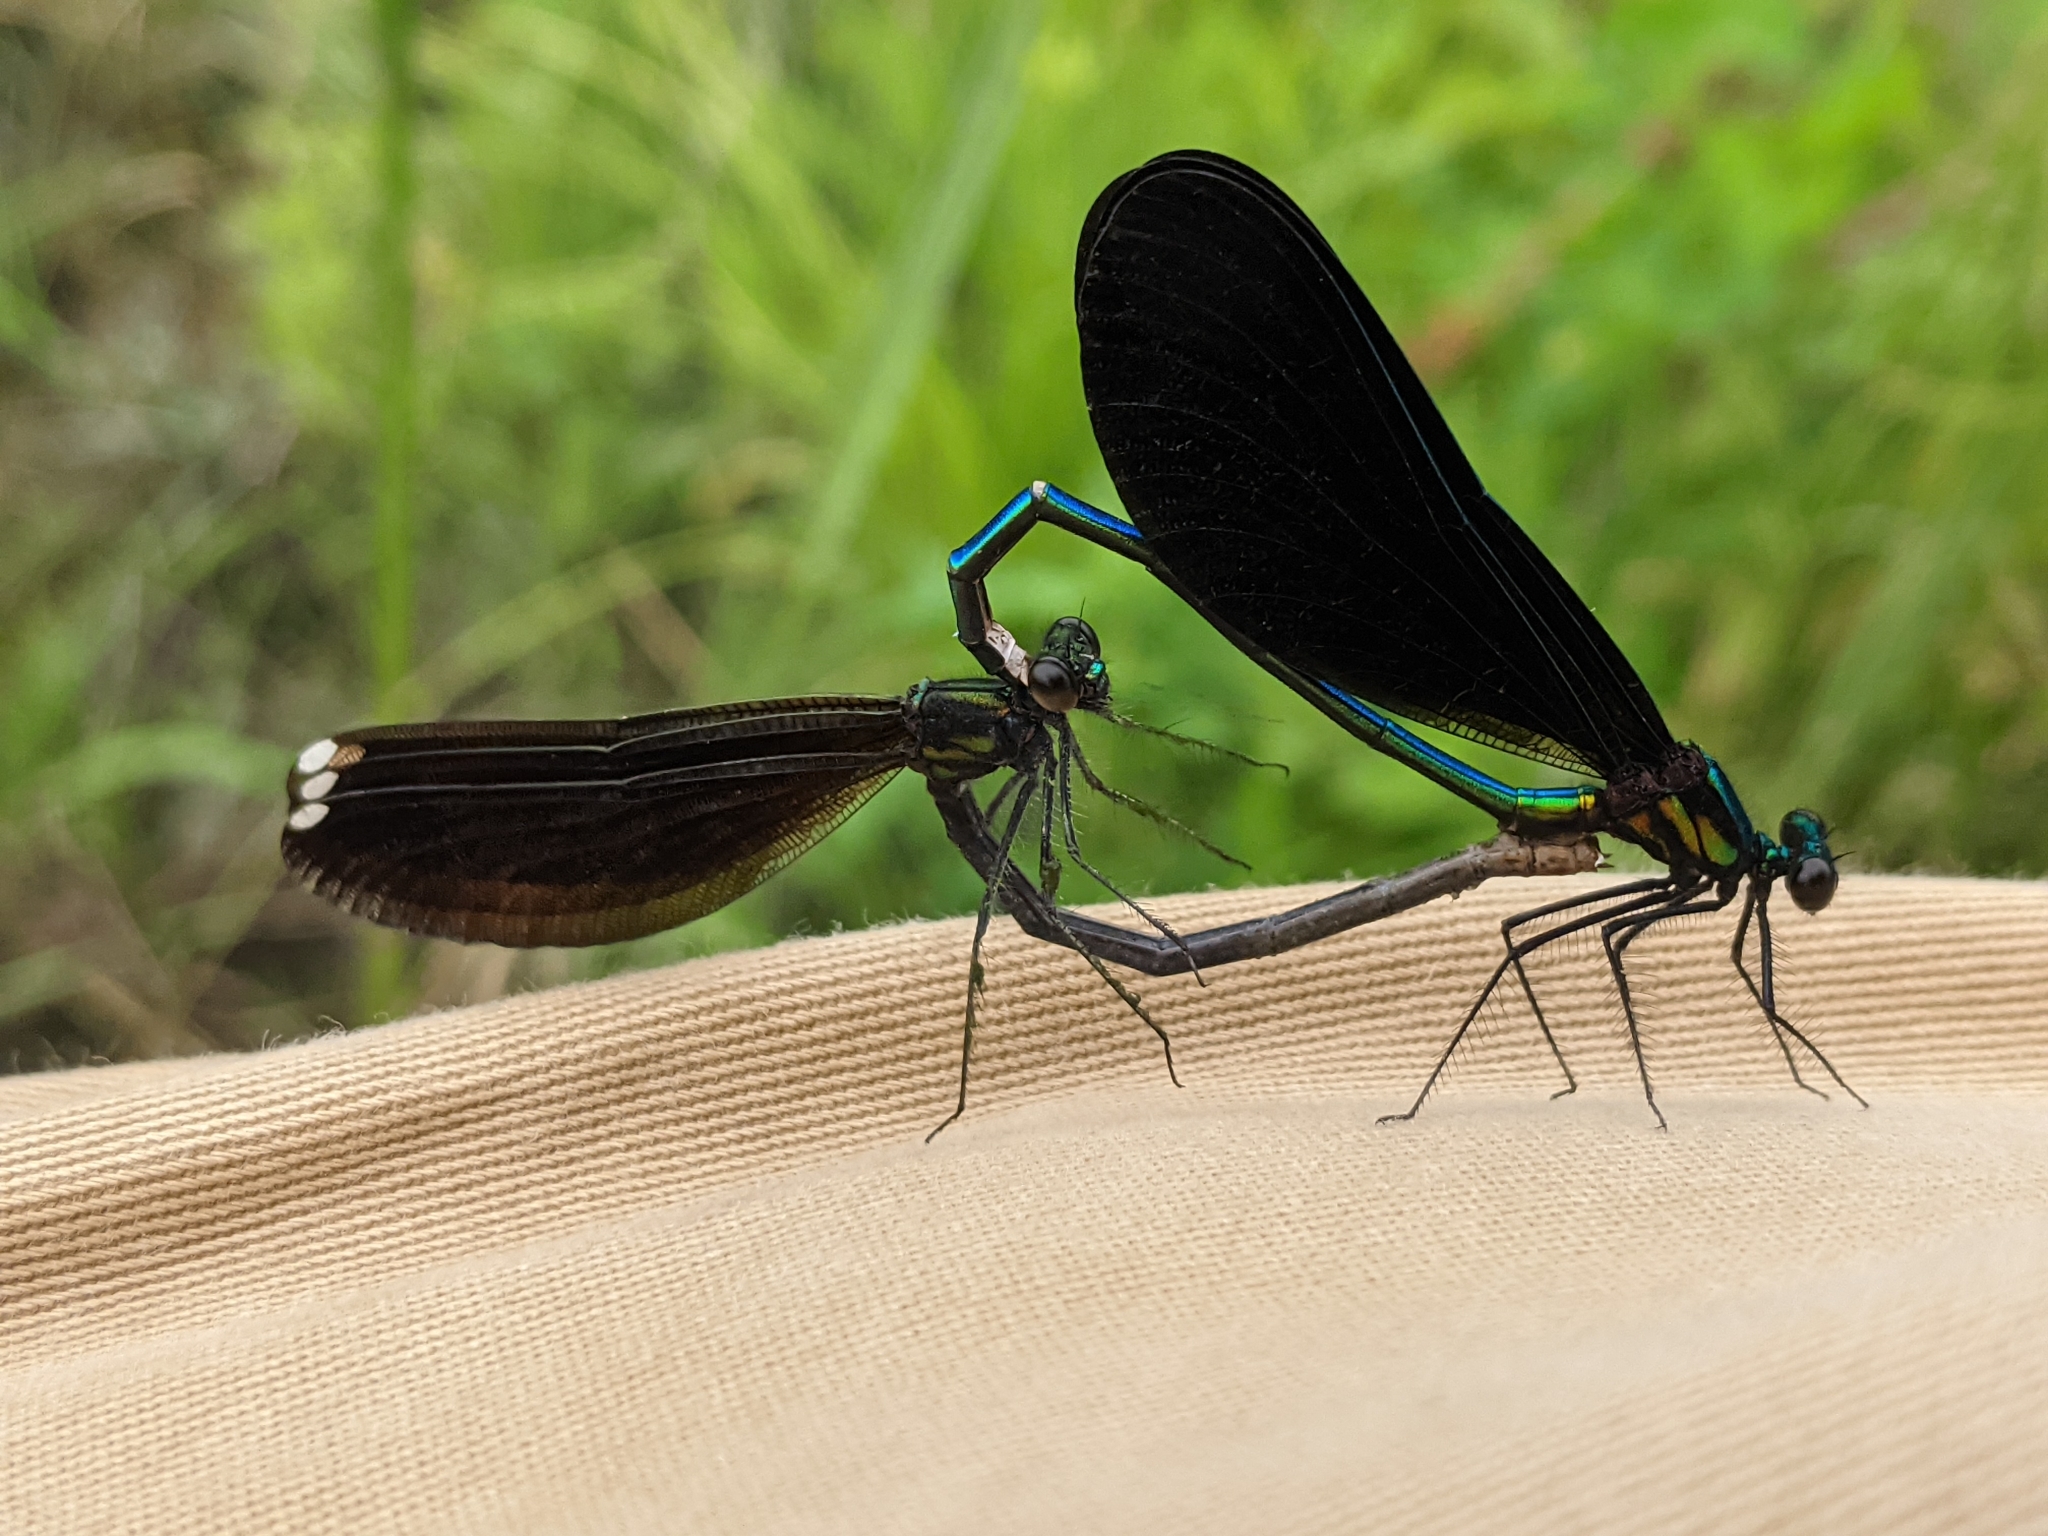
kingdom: Animalia
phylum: Arthropoda
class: Insecta
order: Odonata
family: Calopterygidae
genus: Calopteryx
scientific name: Calopteryx maculata
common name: Ebony jewelwing
